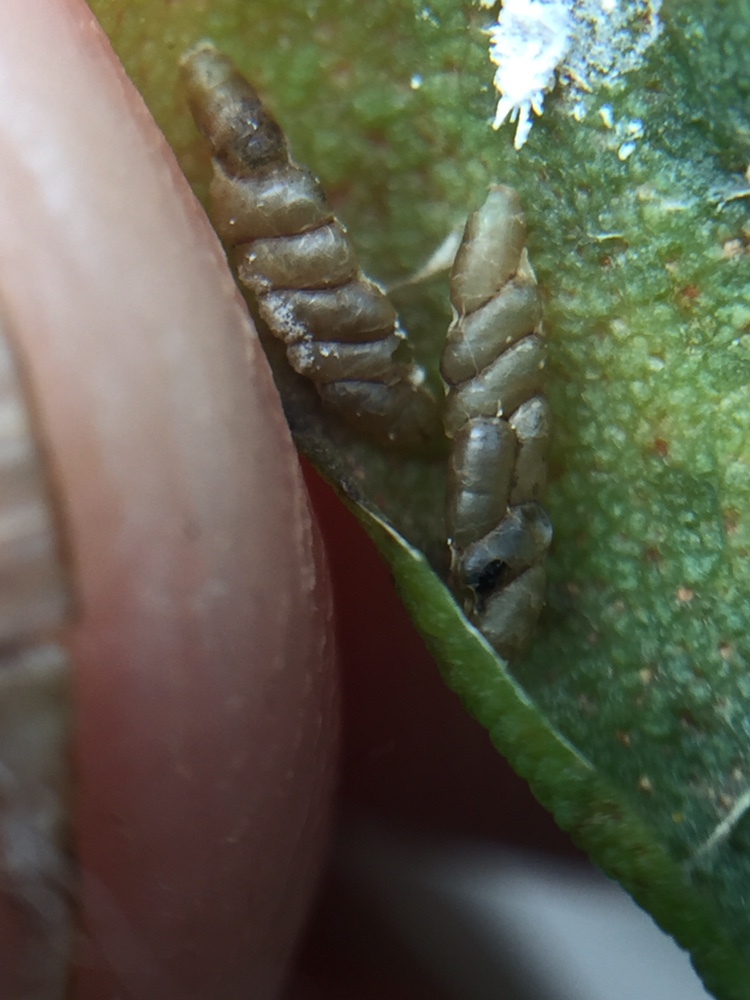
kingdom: Animalia
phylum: Arthropoda
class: Insecta
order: Hymenoptera
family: Platygastridae
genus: Platygaster
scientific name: Platygaster robiniae
